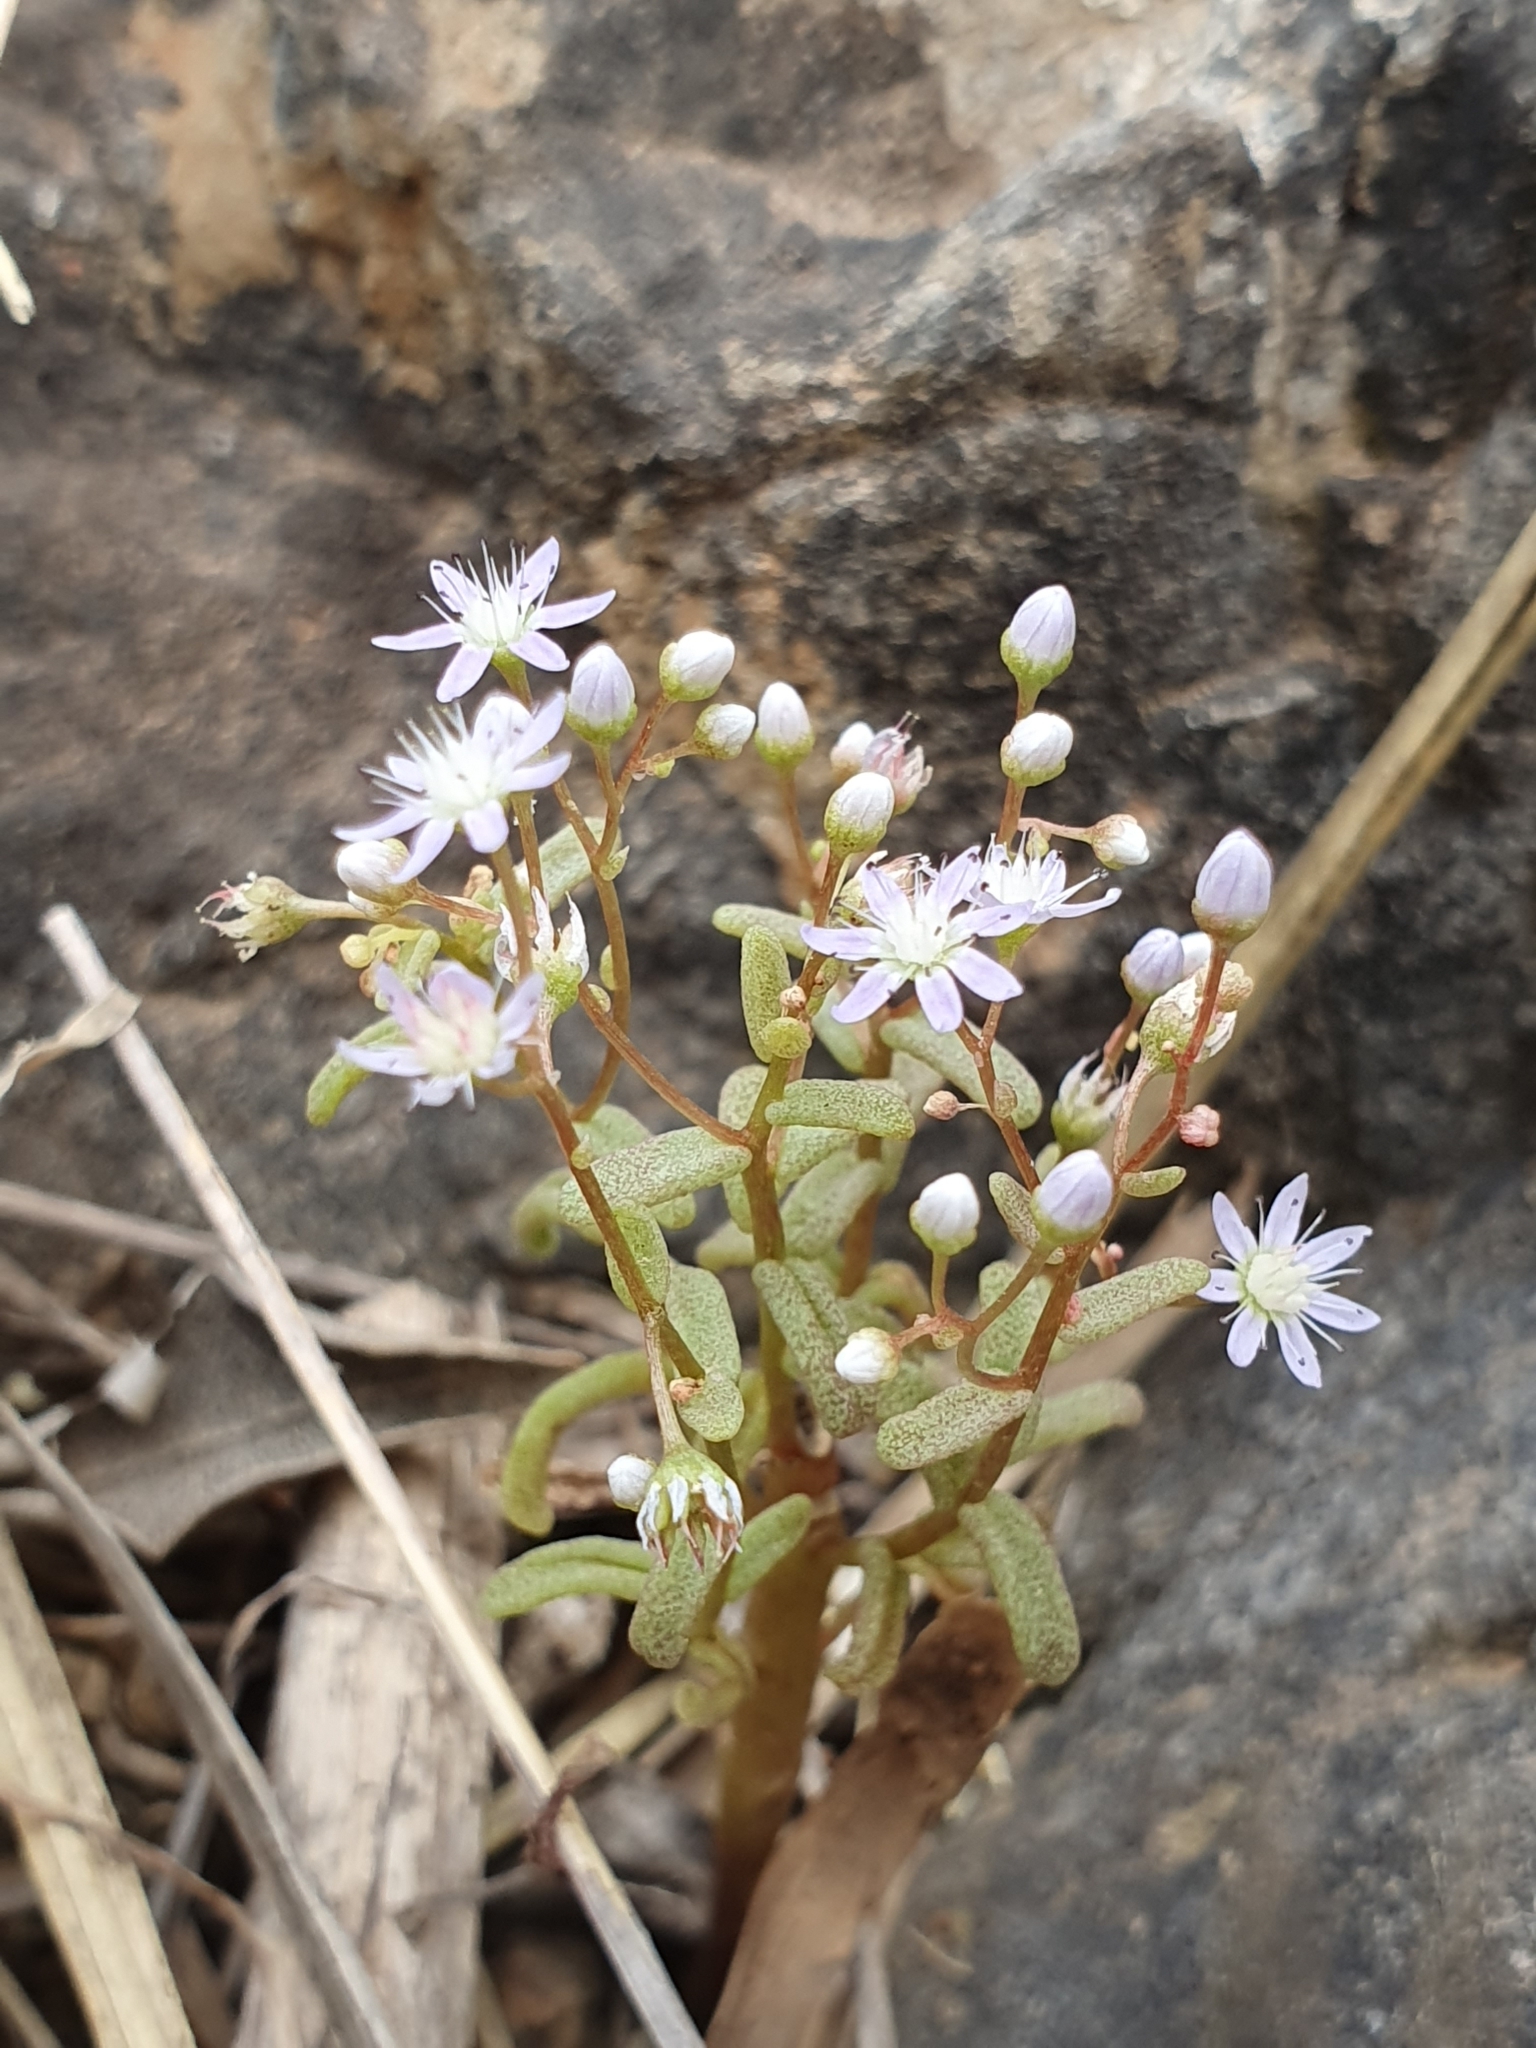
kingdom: Plantae
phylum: Tracheophyta
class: Magnoliopsida
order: Saxifragales
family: Crassulaceae
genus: Sedum
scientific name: Sedum caeruleum
